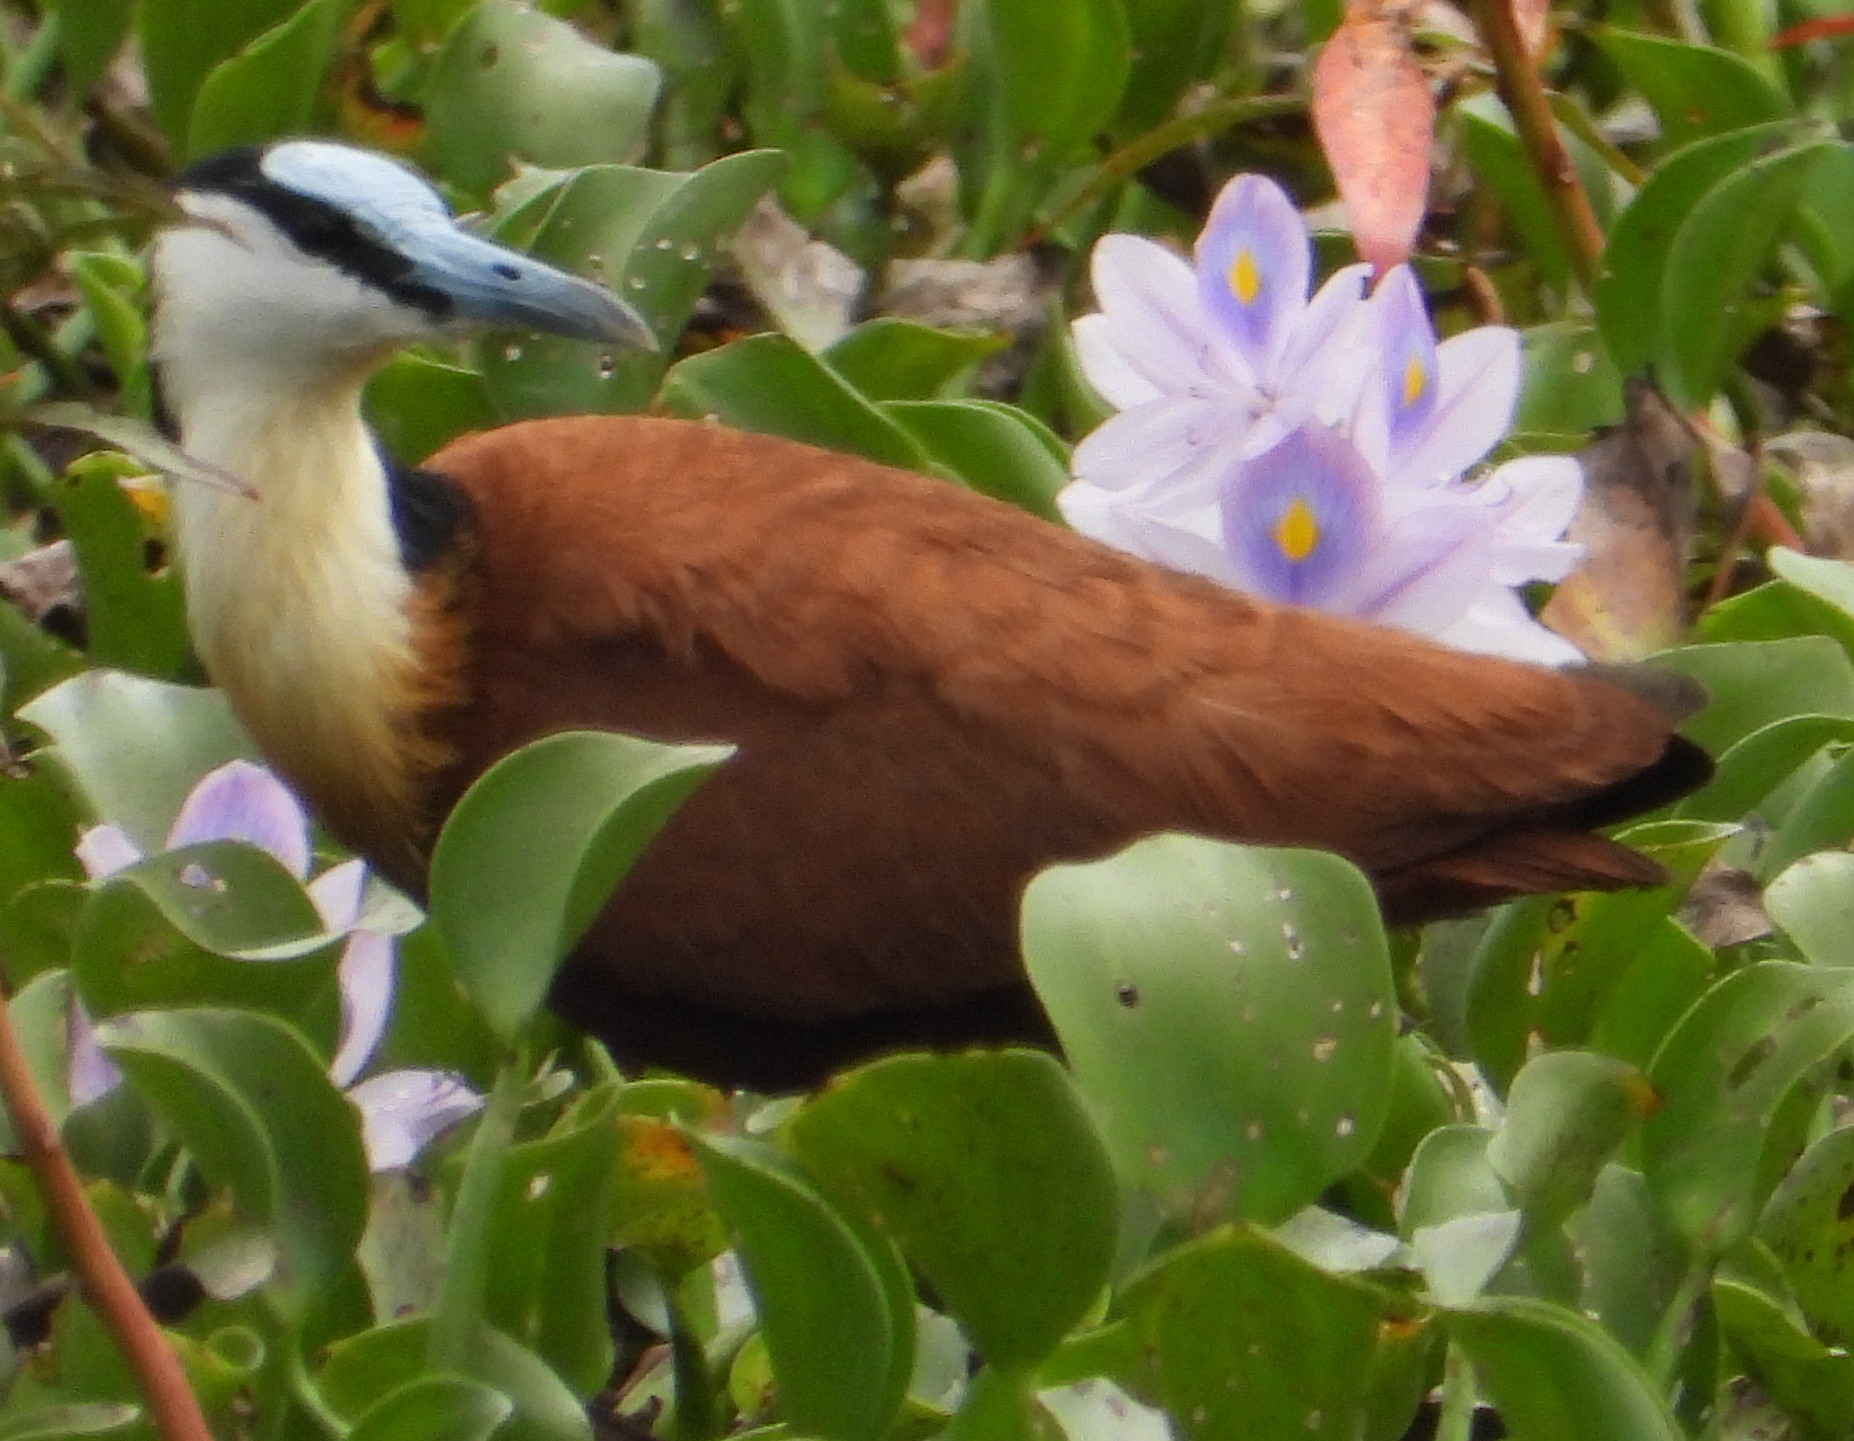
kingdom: Animalia
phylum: Chordata
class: Aves
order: Charadriiformes
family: Jacanidae
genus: Actophilornis
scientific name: Actophilornis africanus
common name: African jacana
